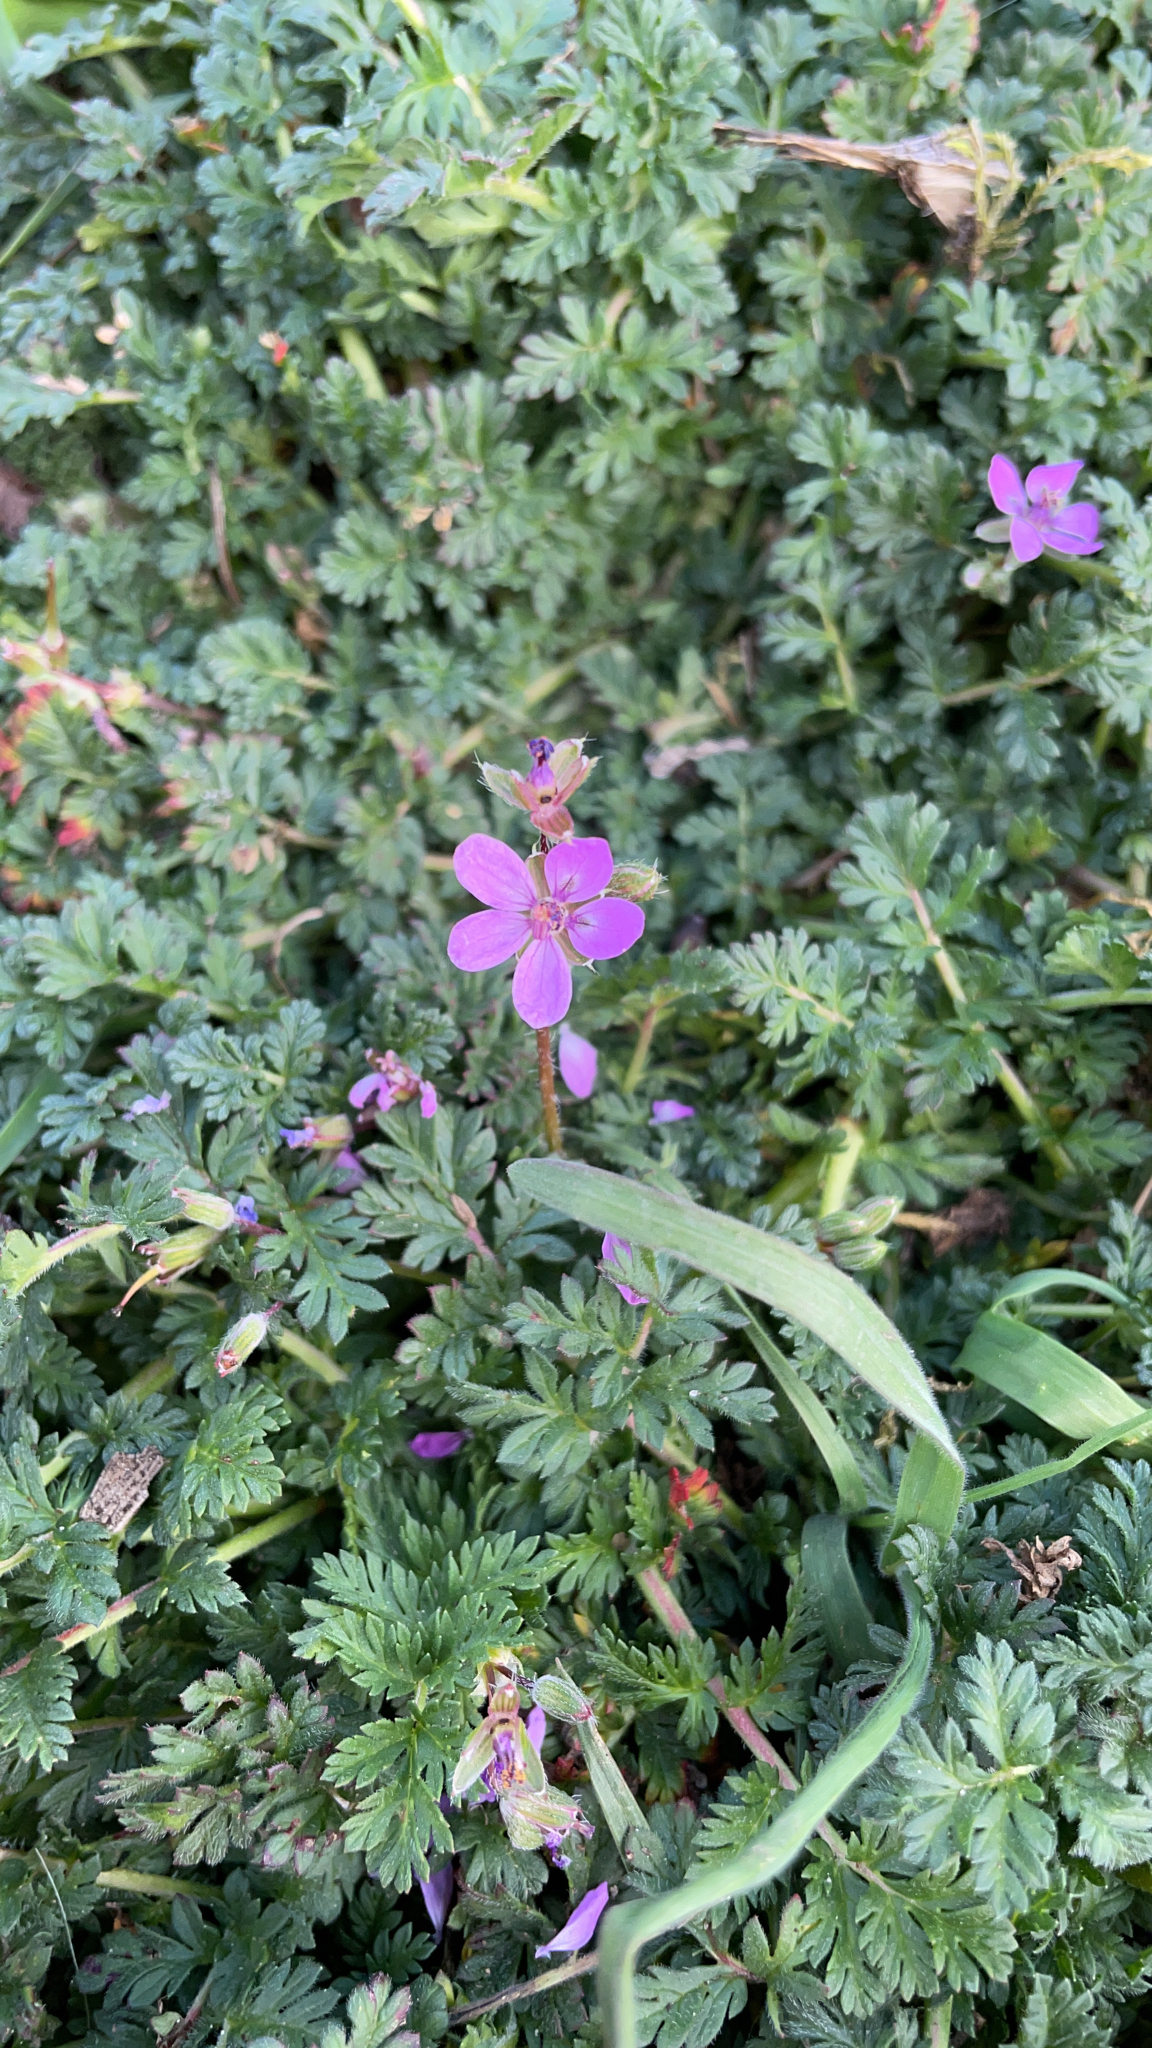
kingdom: Plantae
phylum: Tracheophyta
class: Magnoliopsida
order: Geraniales
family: Geraniaceae
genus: Erodium
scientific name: Erodium cicutarium
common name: Common stork's-bill
